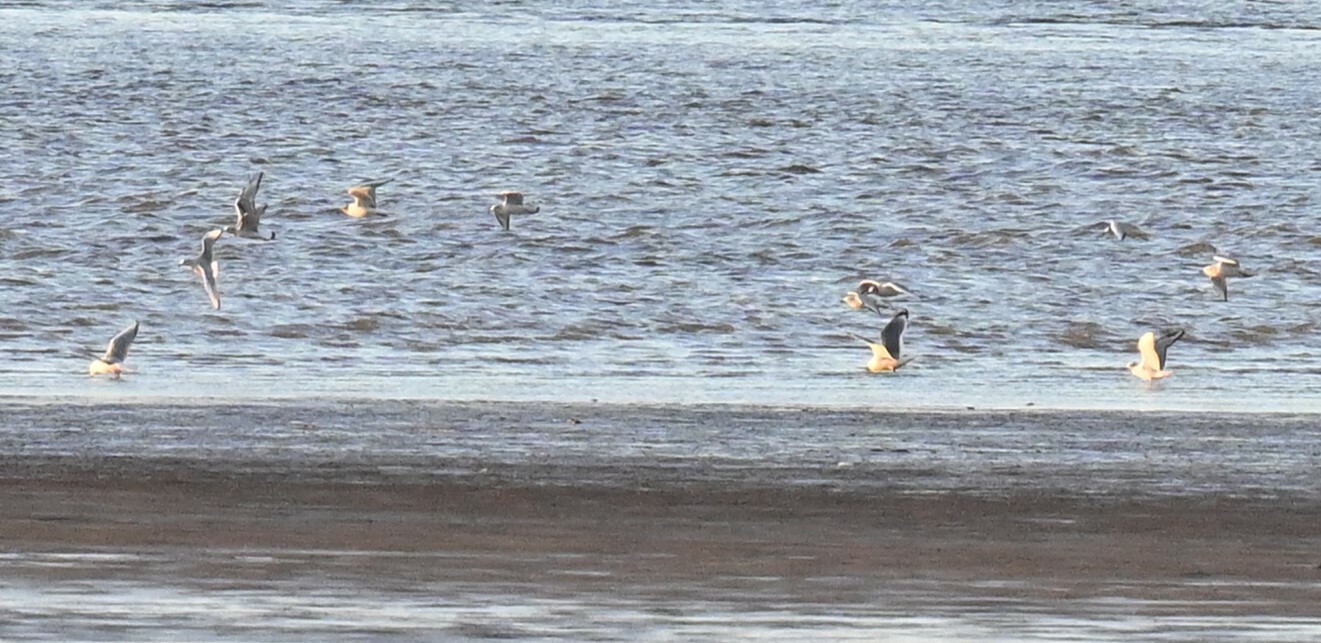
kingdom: Animalia
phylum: Chordata
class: Aves
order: Charadriiformes
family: Laridae
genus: Chroicocephalus
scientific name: Chroicocephalus philadelphia
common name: Bonaparte's gull
